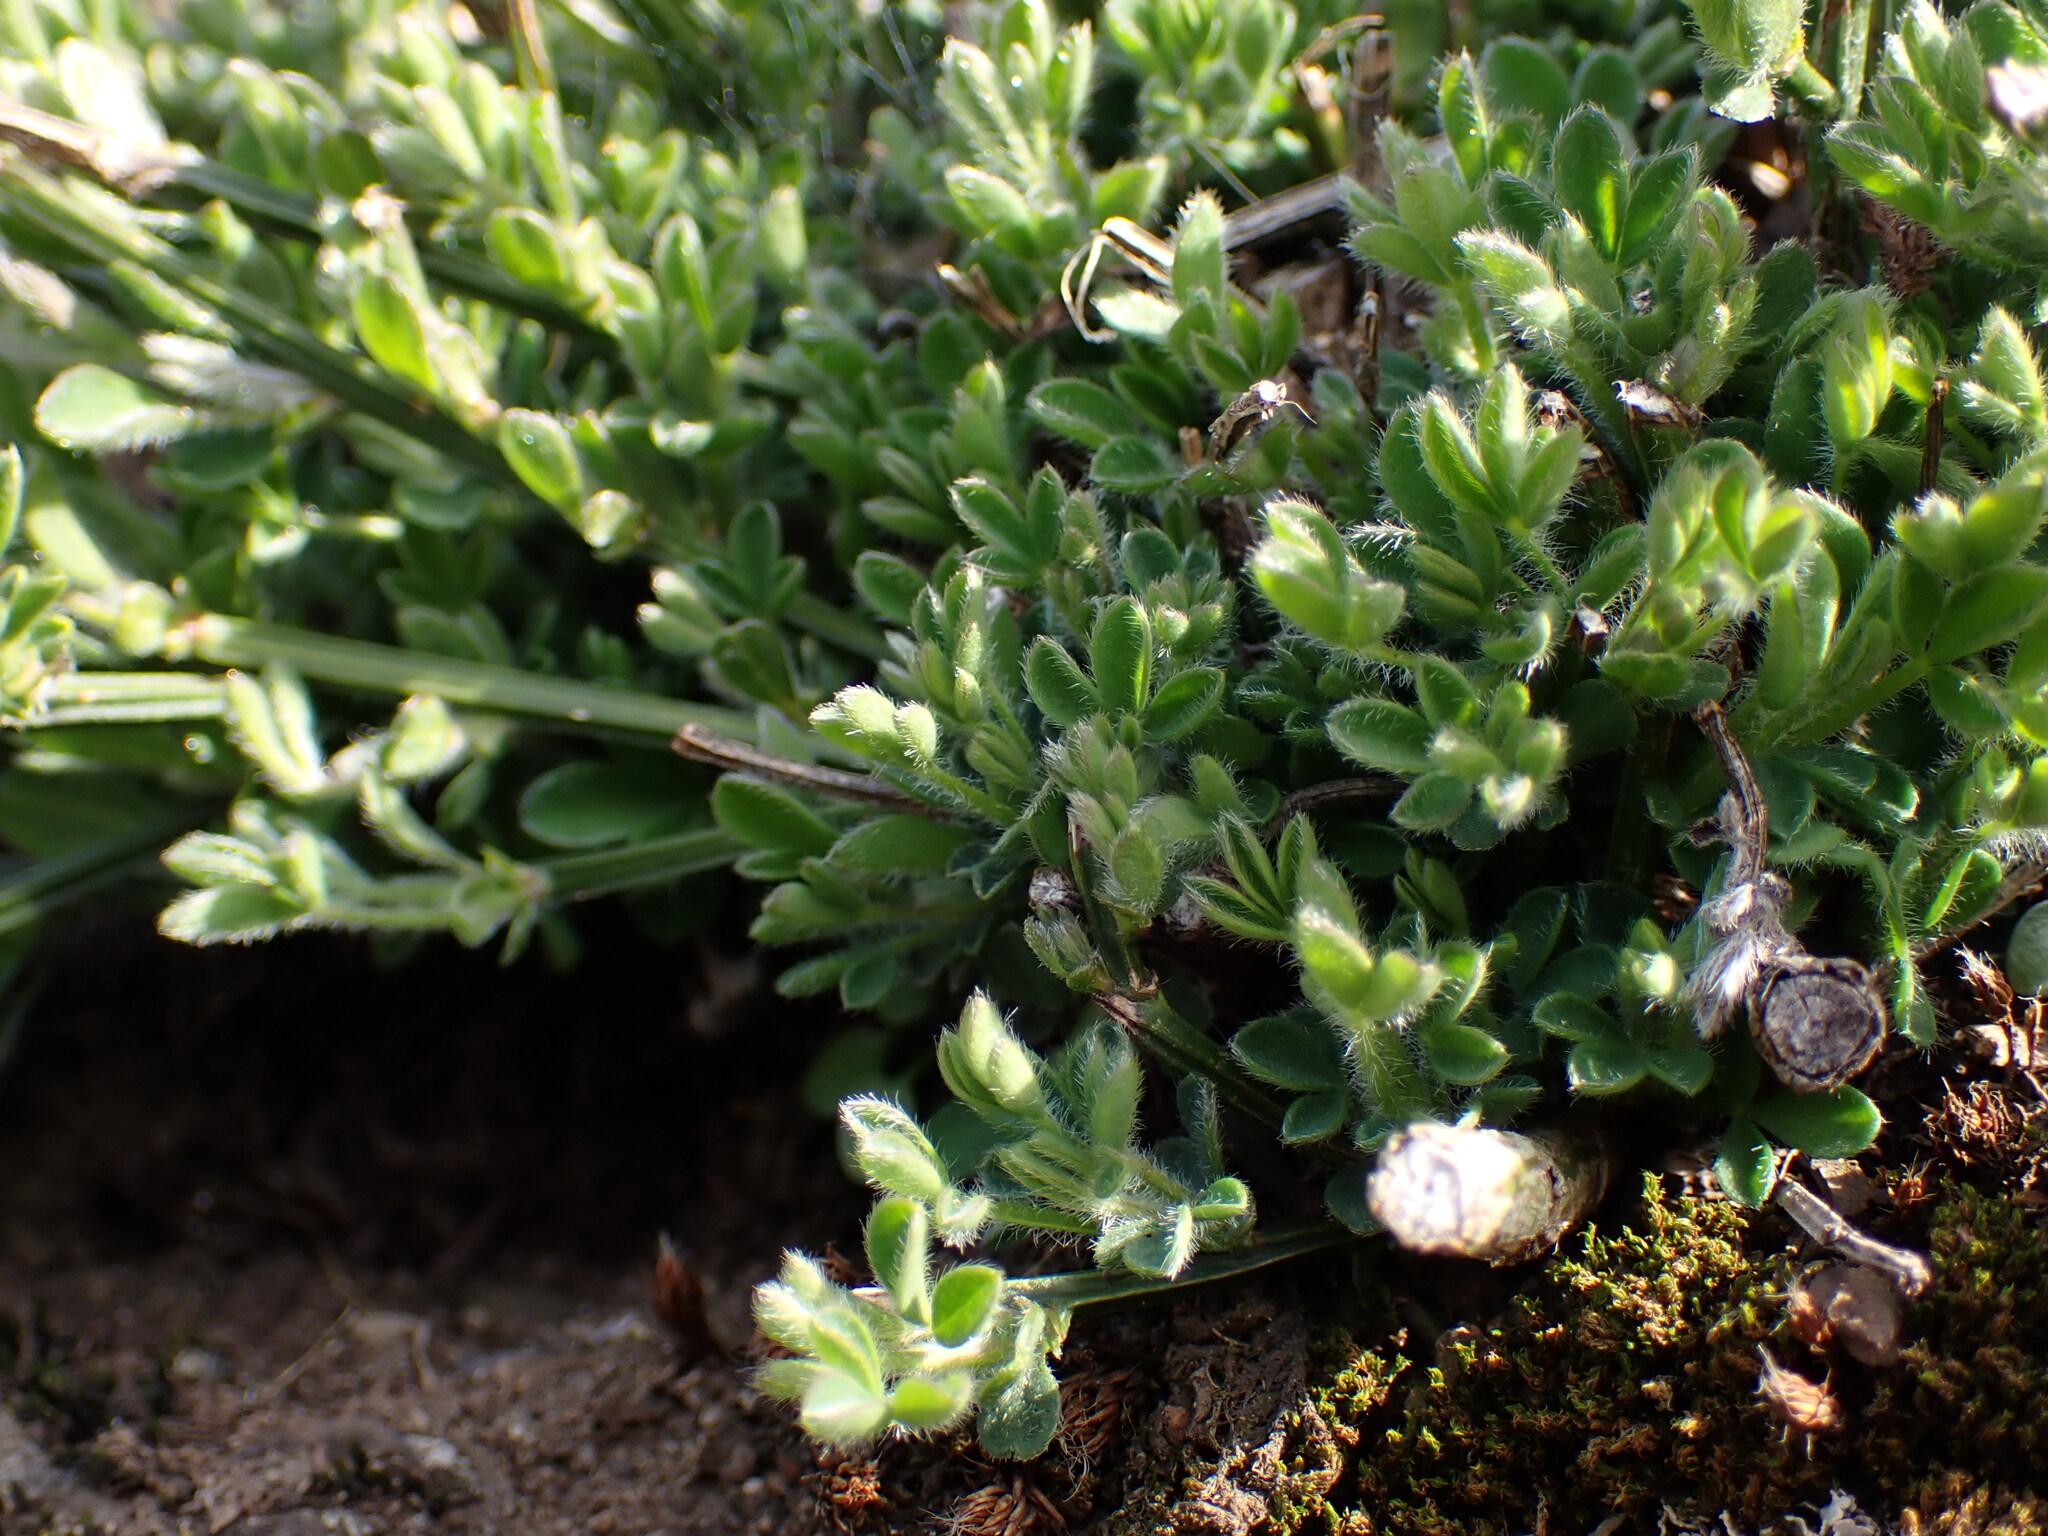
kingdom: Plantae
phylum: Tracheophyta
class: Magnoliopsida
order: Fabales
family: Fabaceae
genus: Cytisus
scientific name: Cytisus scoparius
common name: Scotch broom
